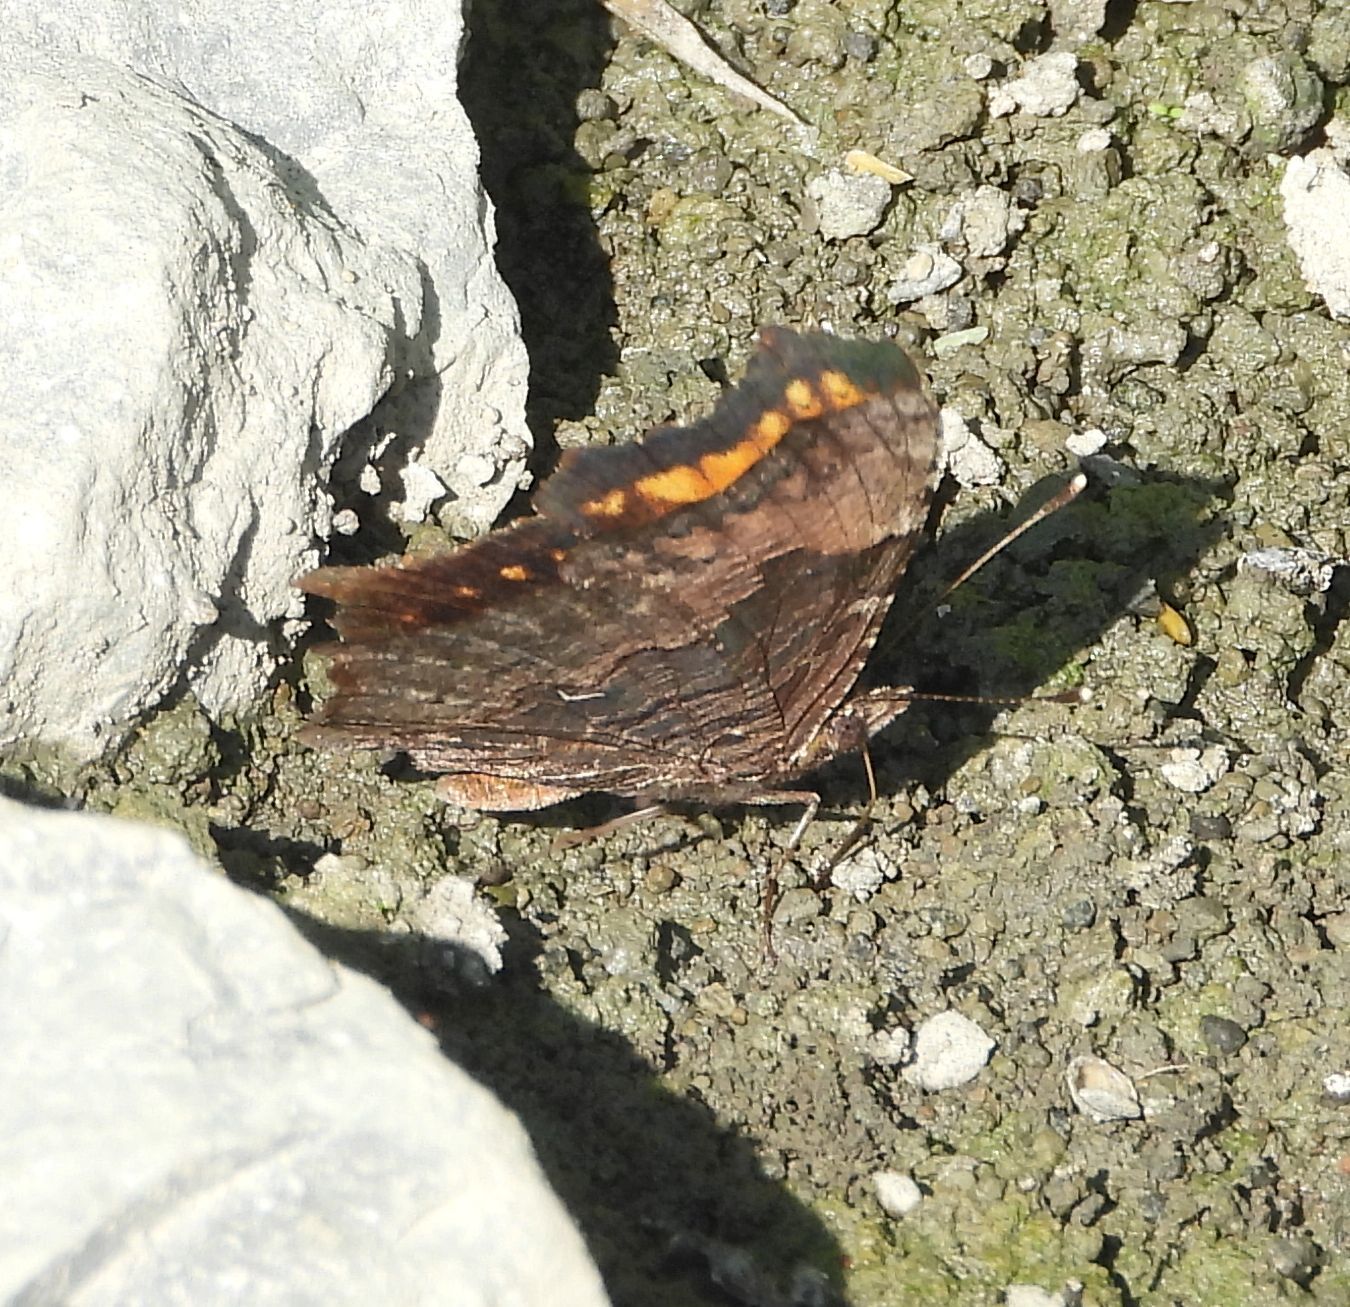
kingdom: Animalia
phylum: Arthropoda
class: Insecta
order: Lepidoptera
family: Nymphalidae
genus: Polygonia
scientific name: Polygonia progne
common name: Gray comma
